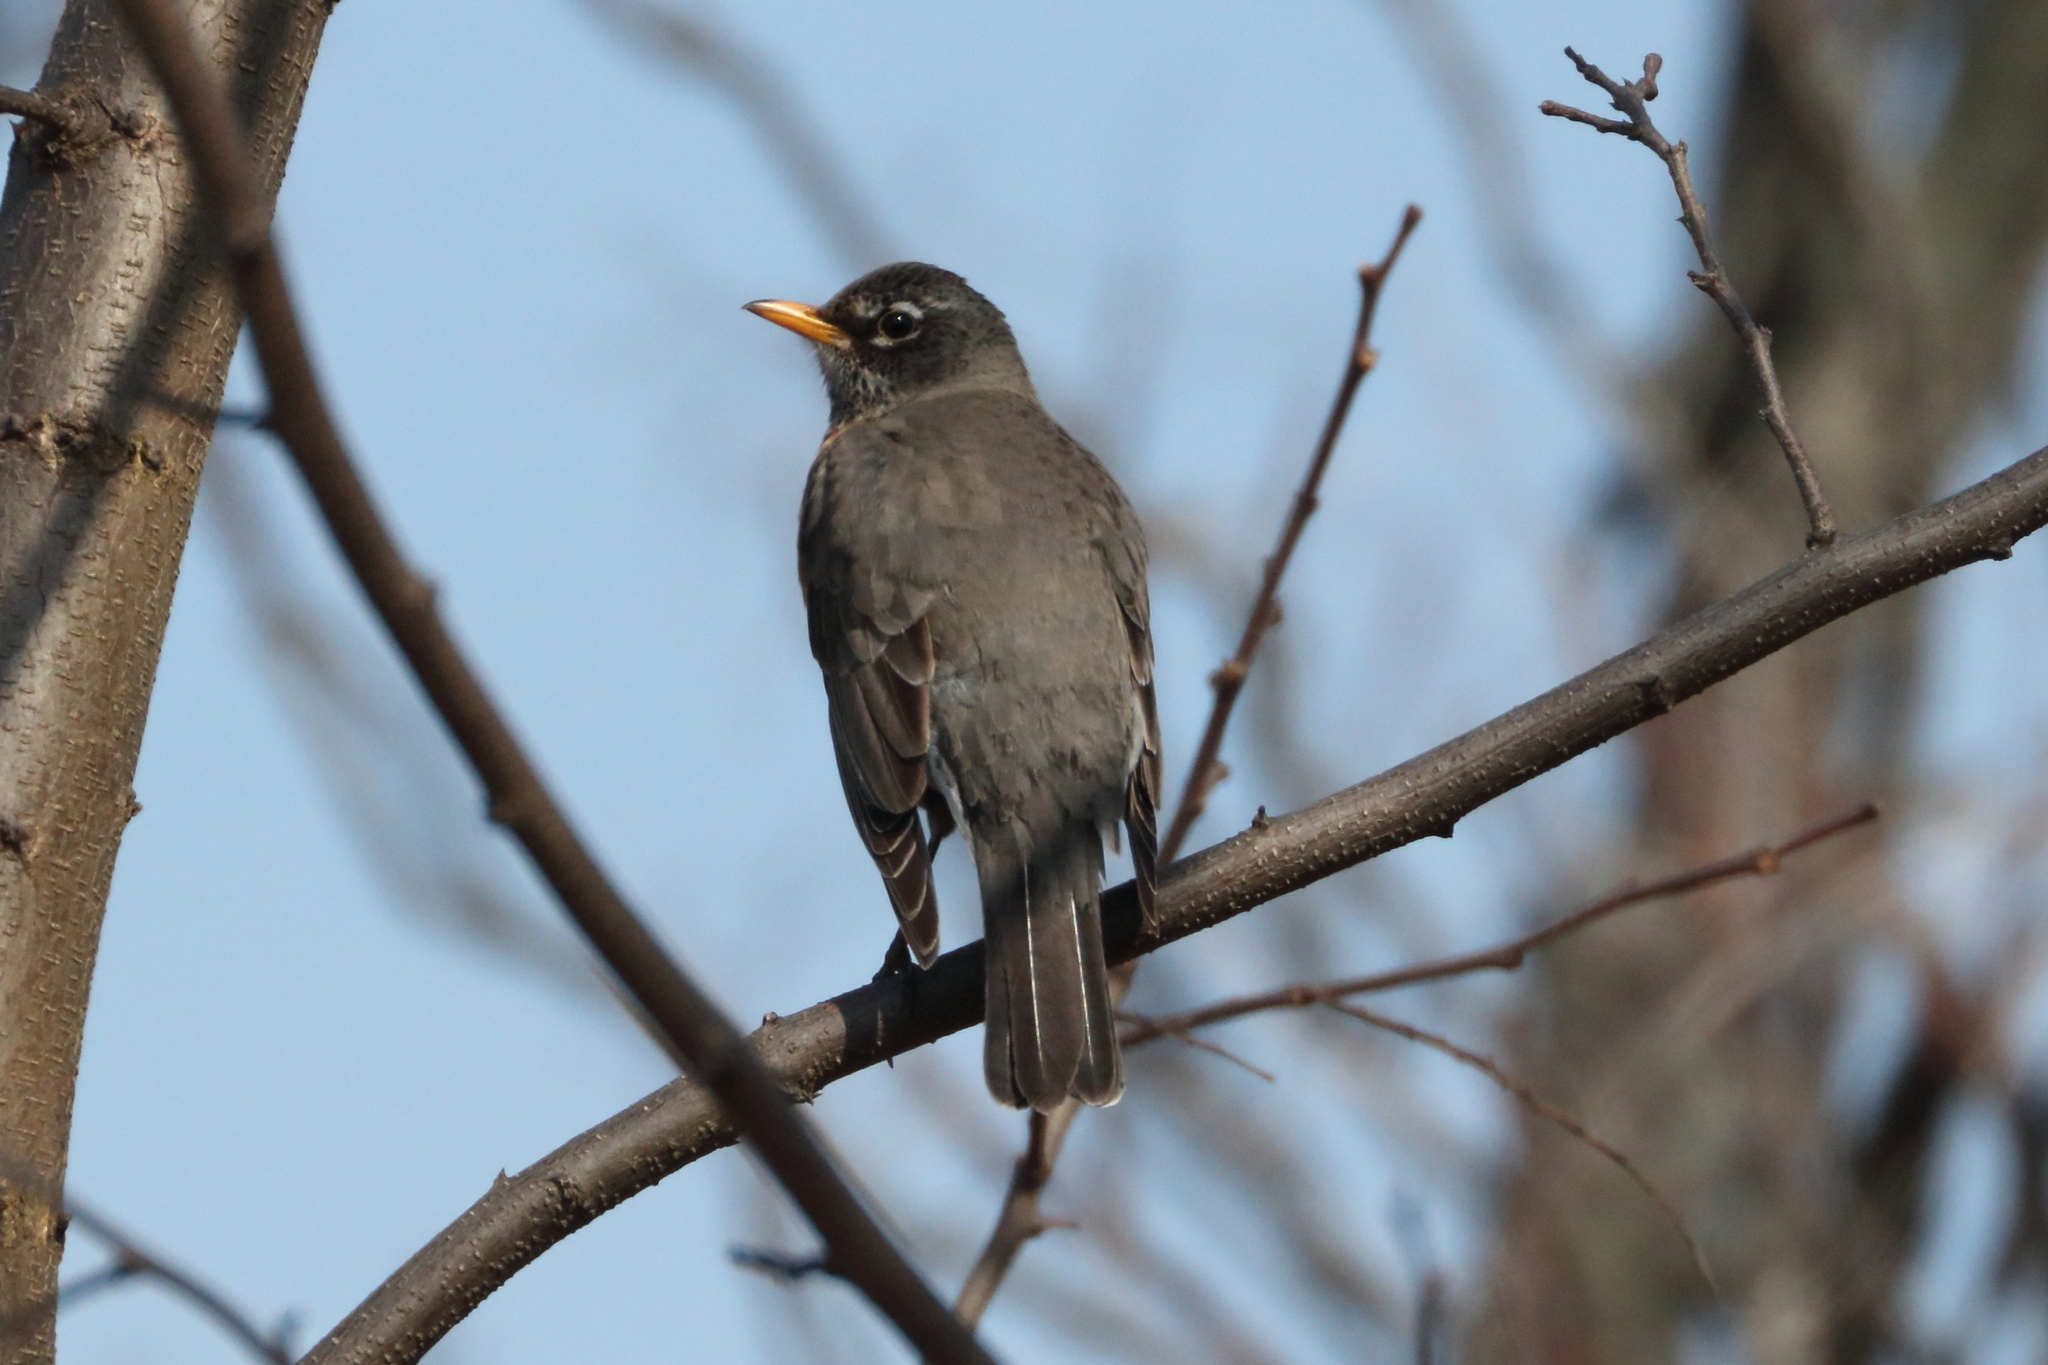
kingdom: Animalia
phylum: Chordata
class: Aves
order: Passeriformes
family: Turdidae
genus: Turdus
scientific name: Turdus migratorius
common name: American robin
